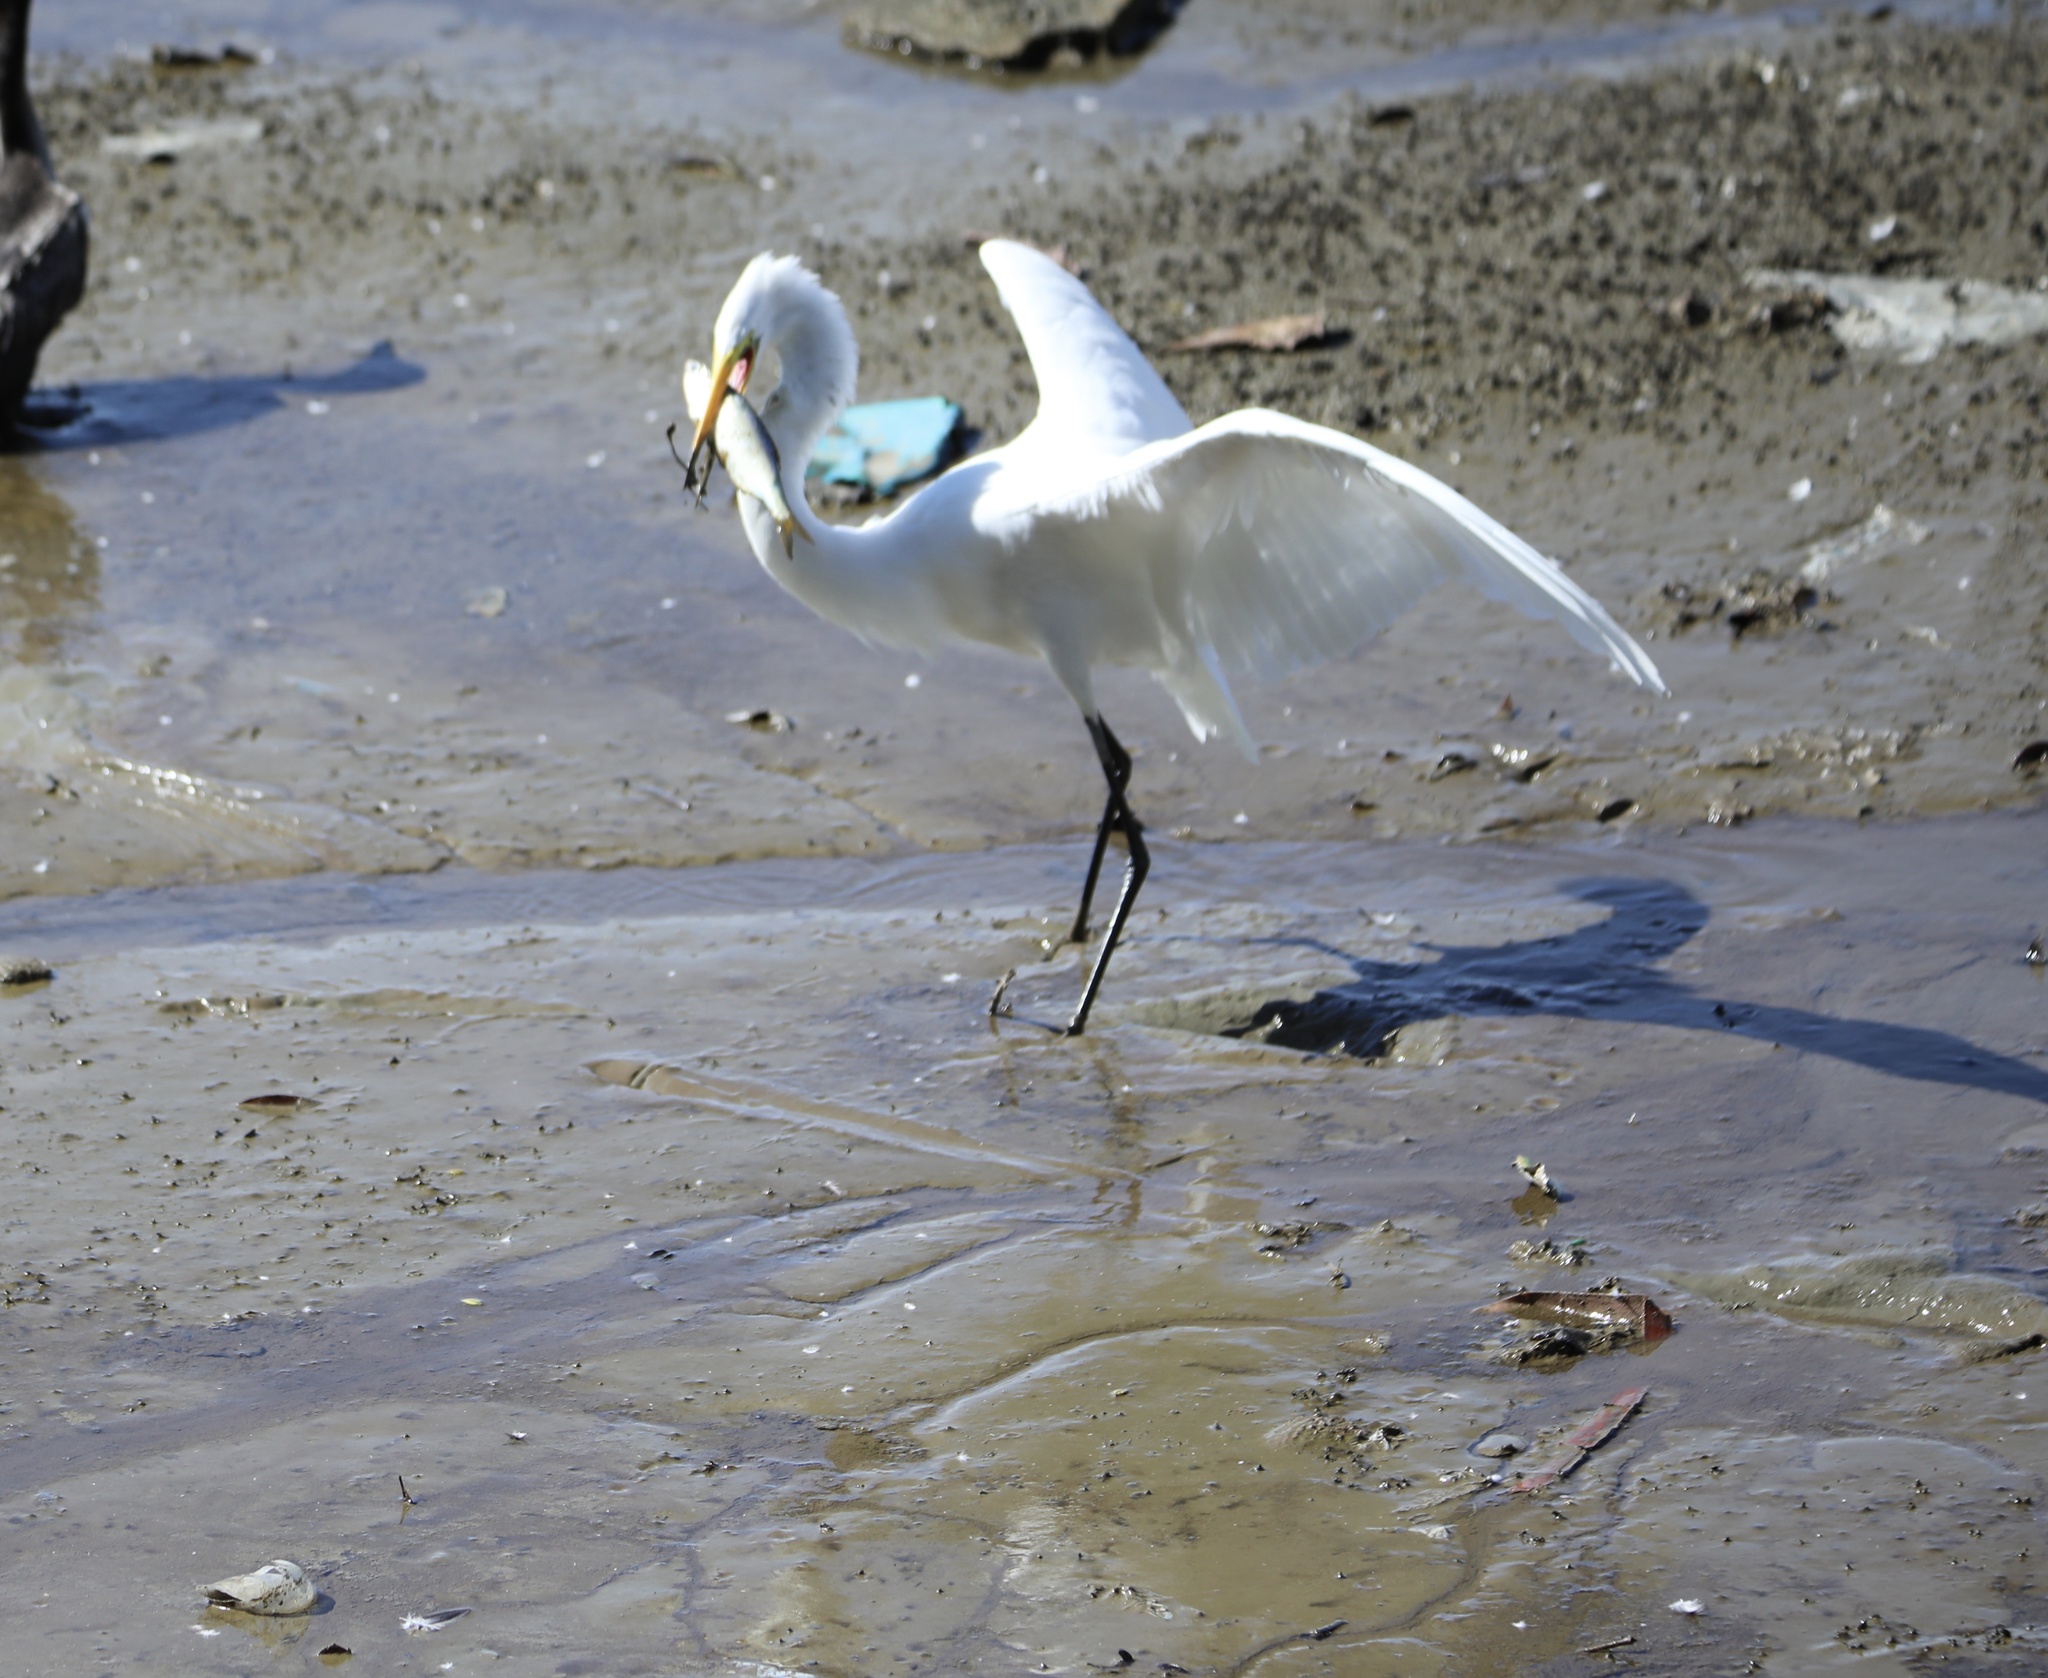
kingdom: Animalia
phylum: Chordata
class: Aves
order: Pelecaniformes
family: Ardeidae
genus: Ardea
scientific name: Ardea alba
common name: Great egret
